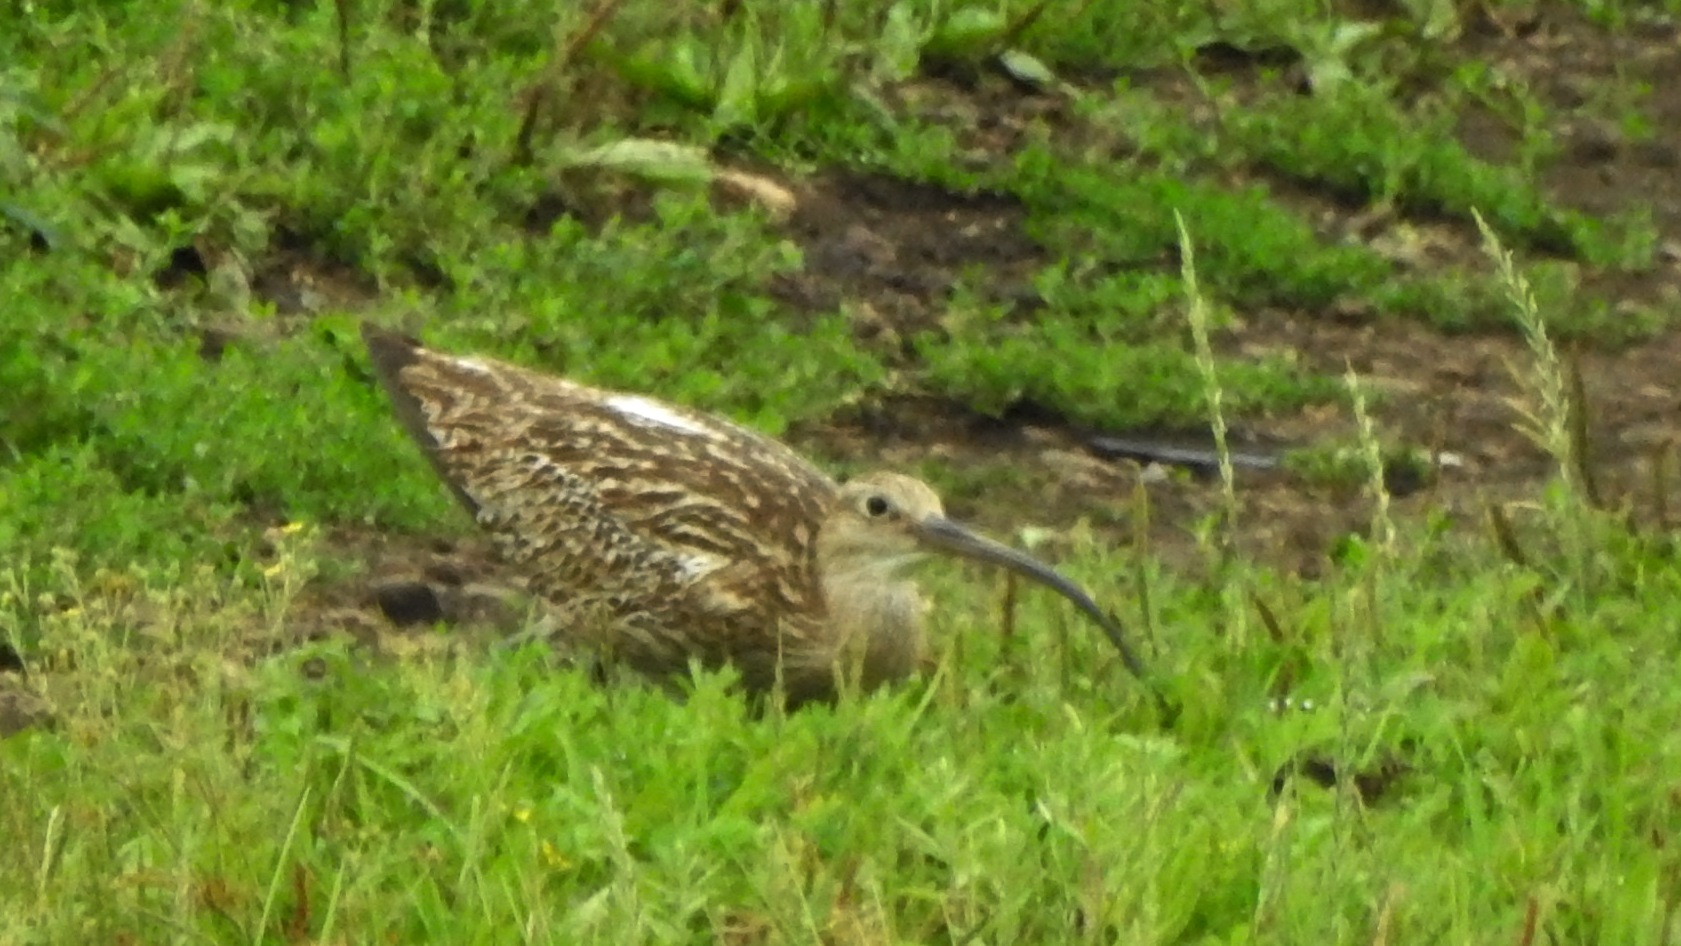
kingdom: Animalia
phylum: Chordata
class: Aves
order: Charadriiformes
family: Scolopacidae
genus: Numenius
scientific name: Numenius arquata
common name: Eurasian curlew
